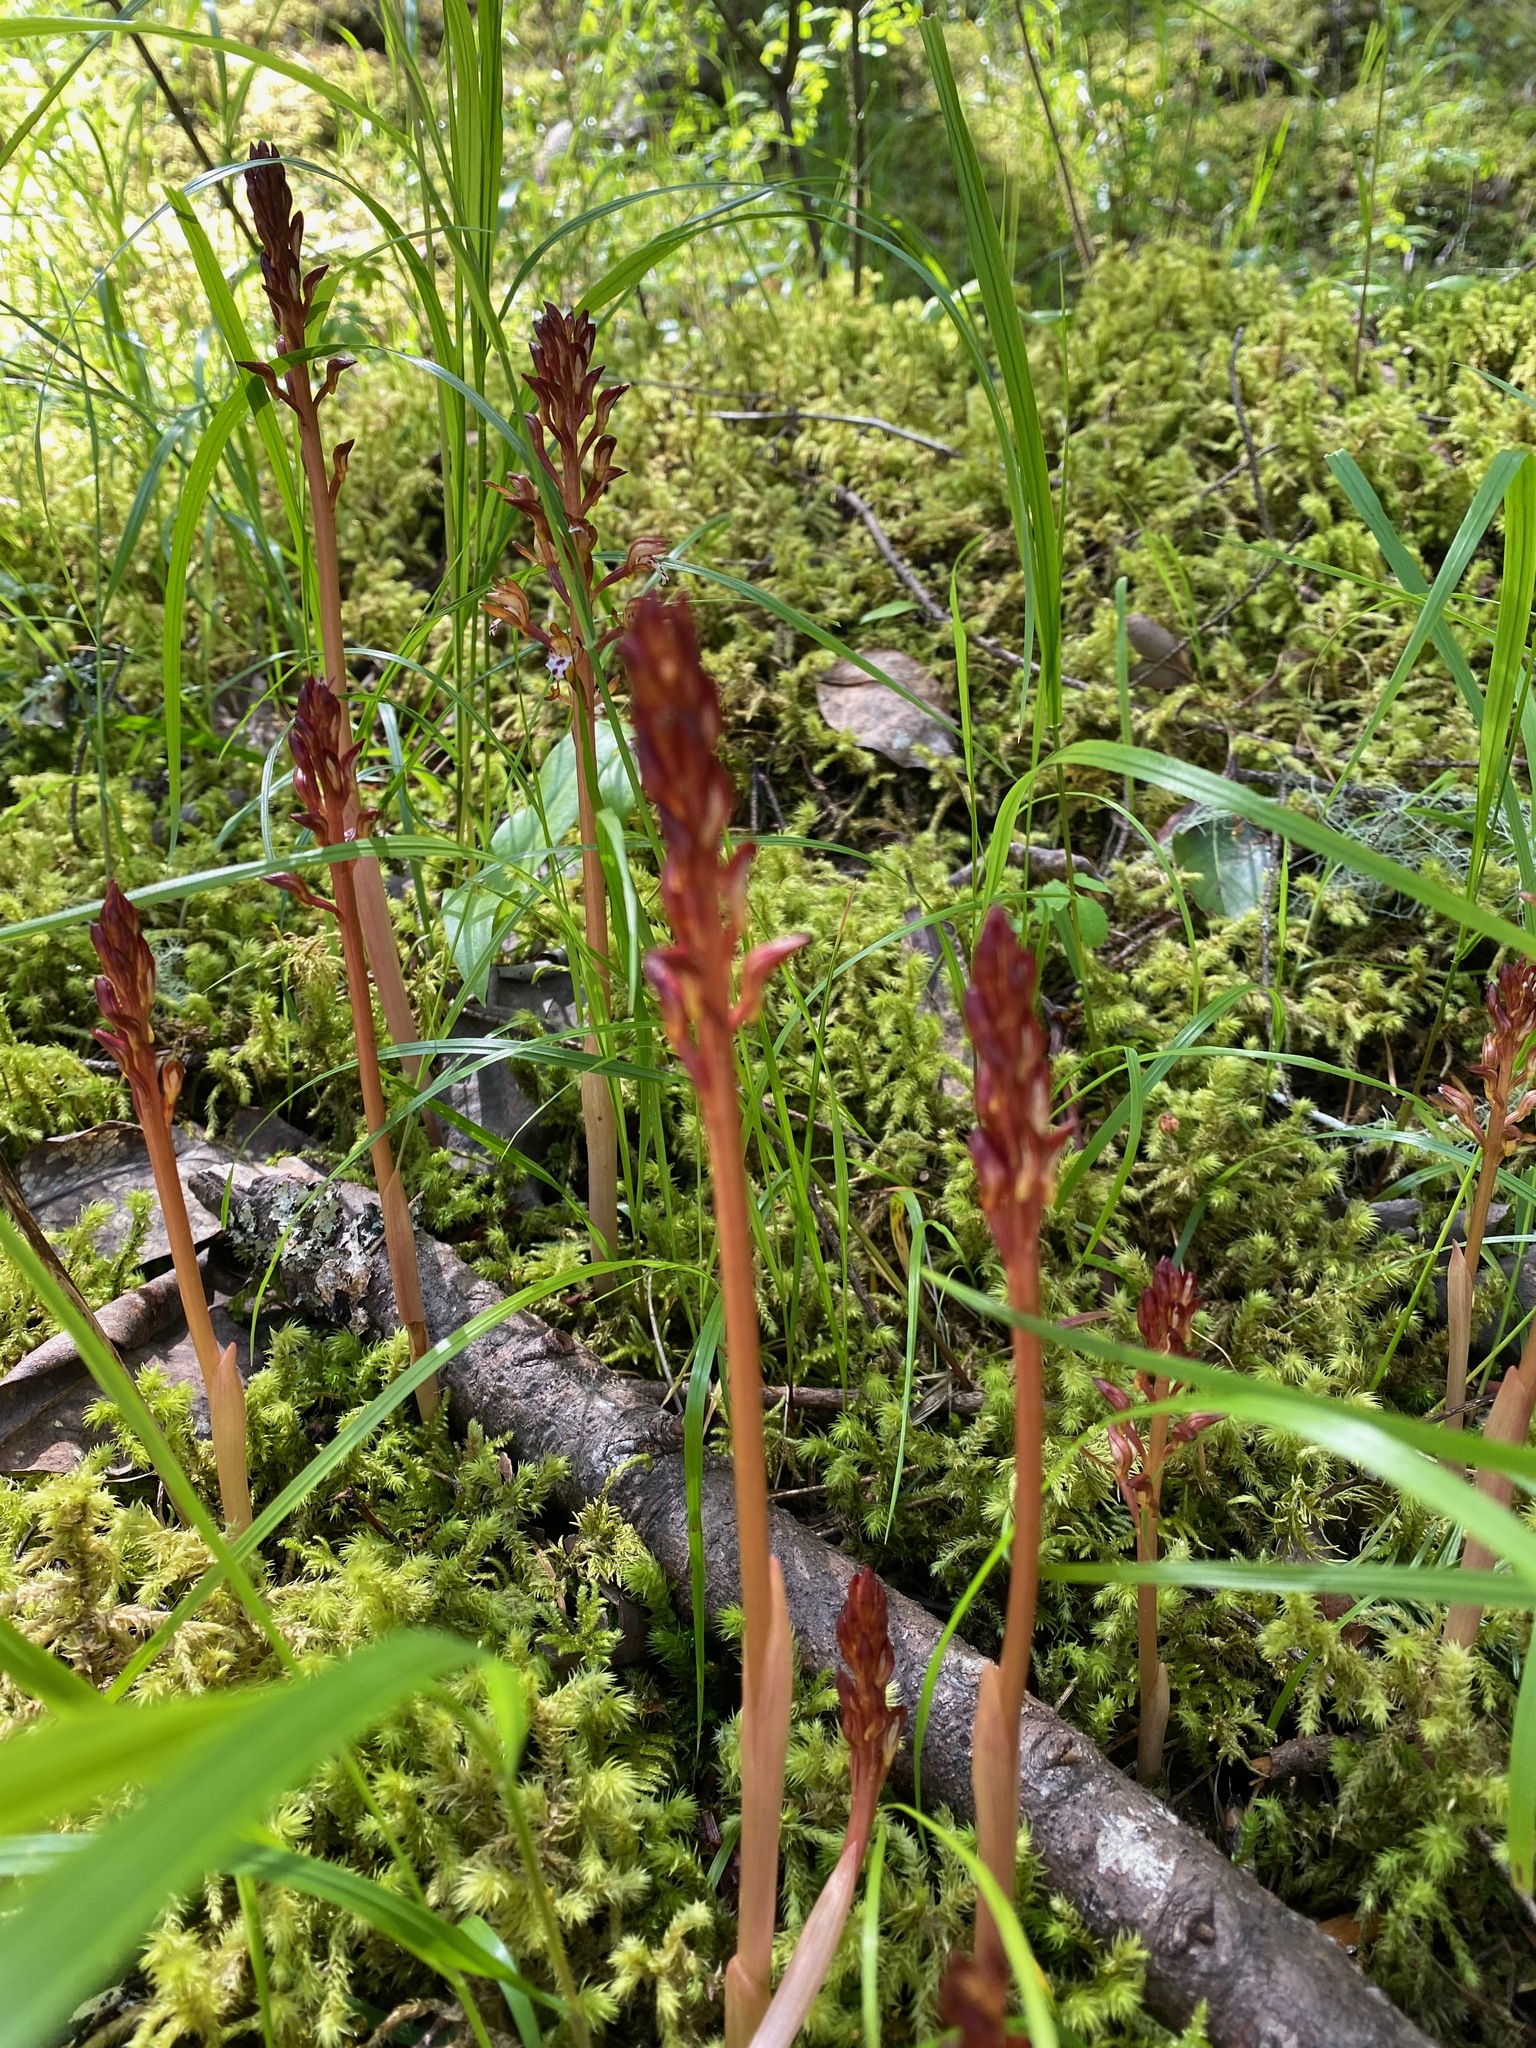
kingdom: Plantae
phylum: Tracheophyta
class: Liliopsida
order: Asparagales
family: Orchidaceae
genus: Corallorhiza
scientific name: Corallorhiza maculata
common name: Spotted coralroot
